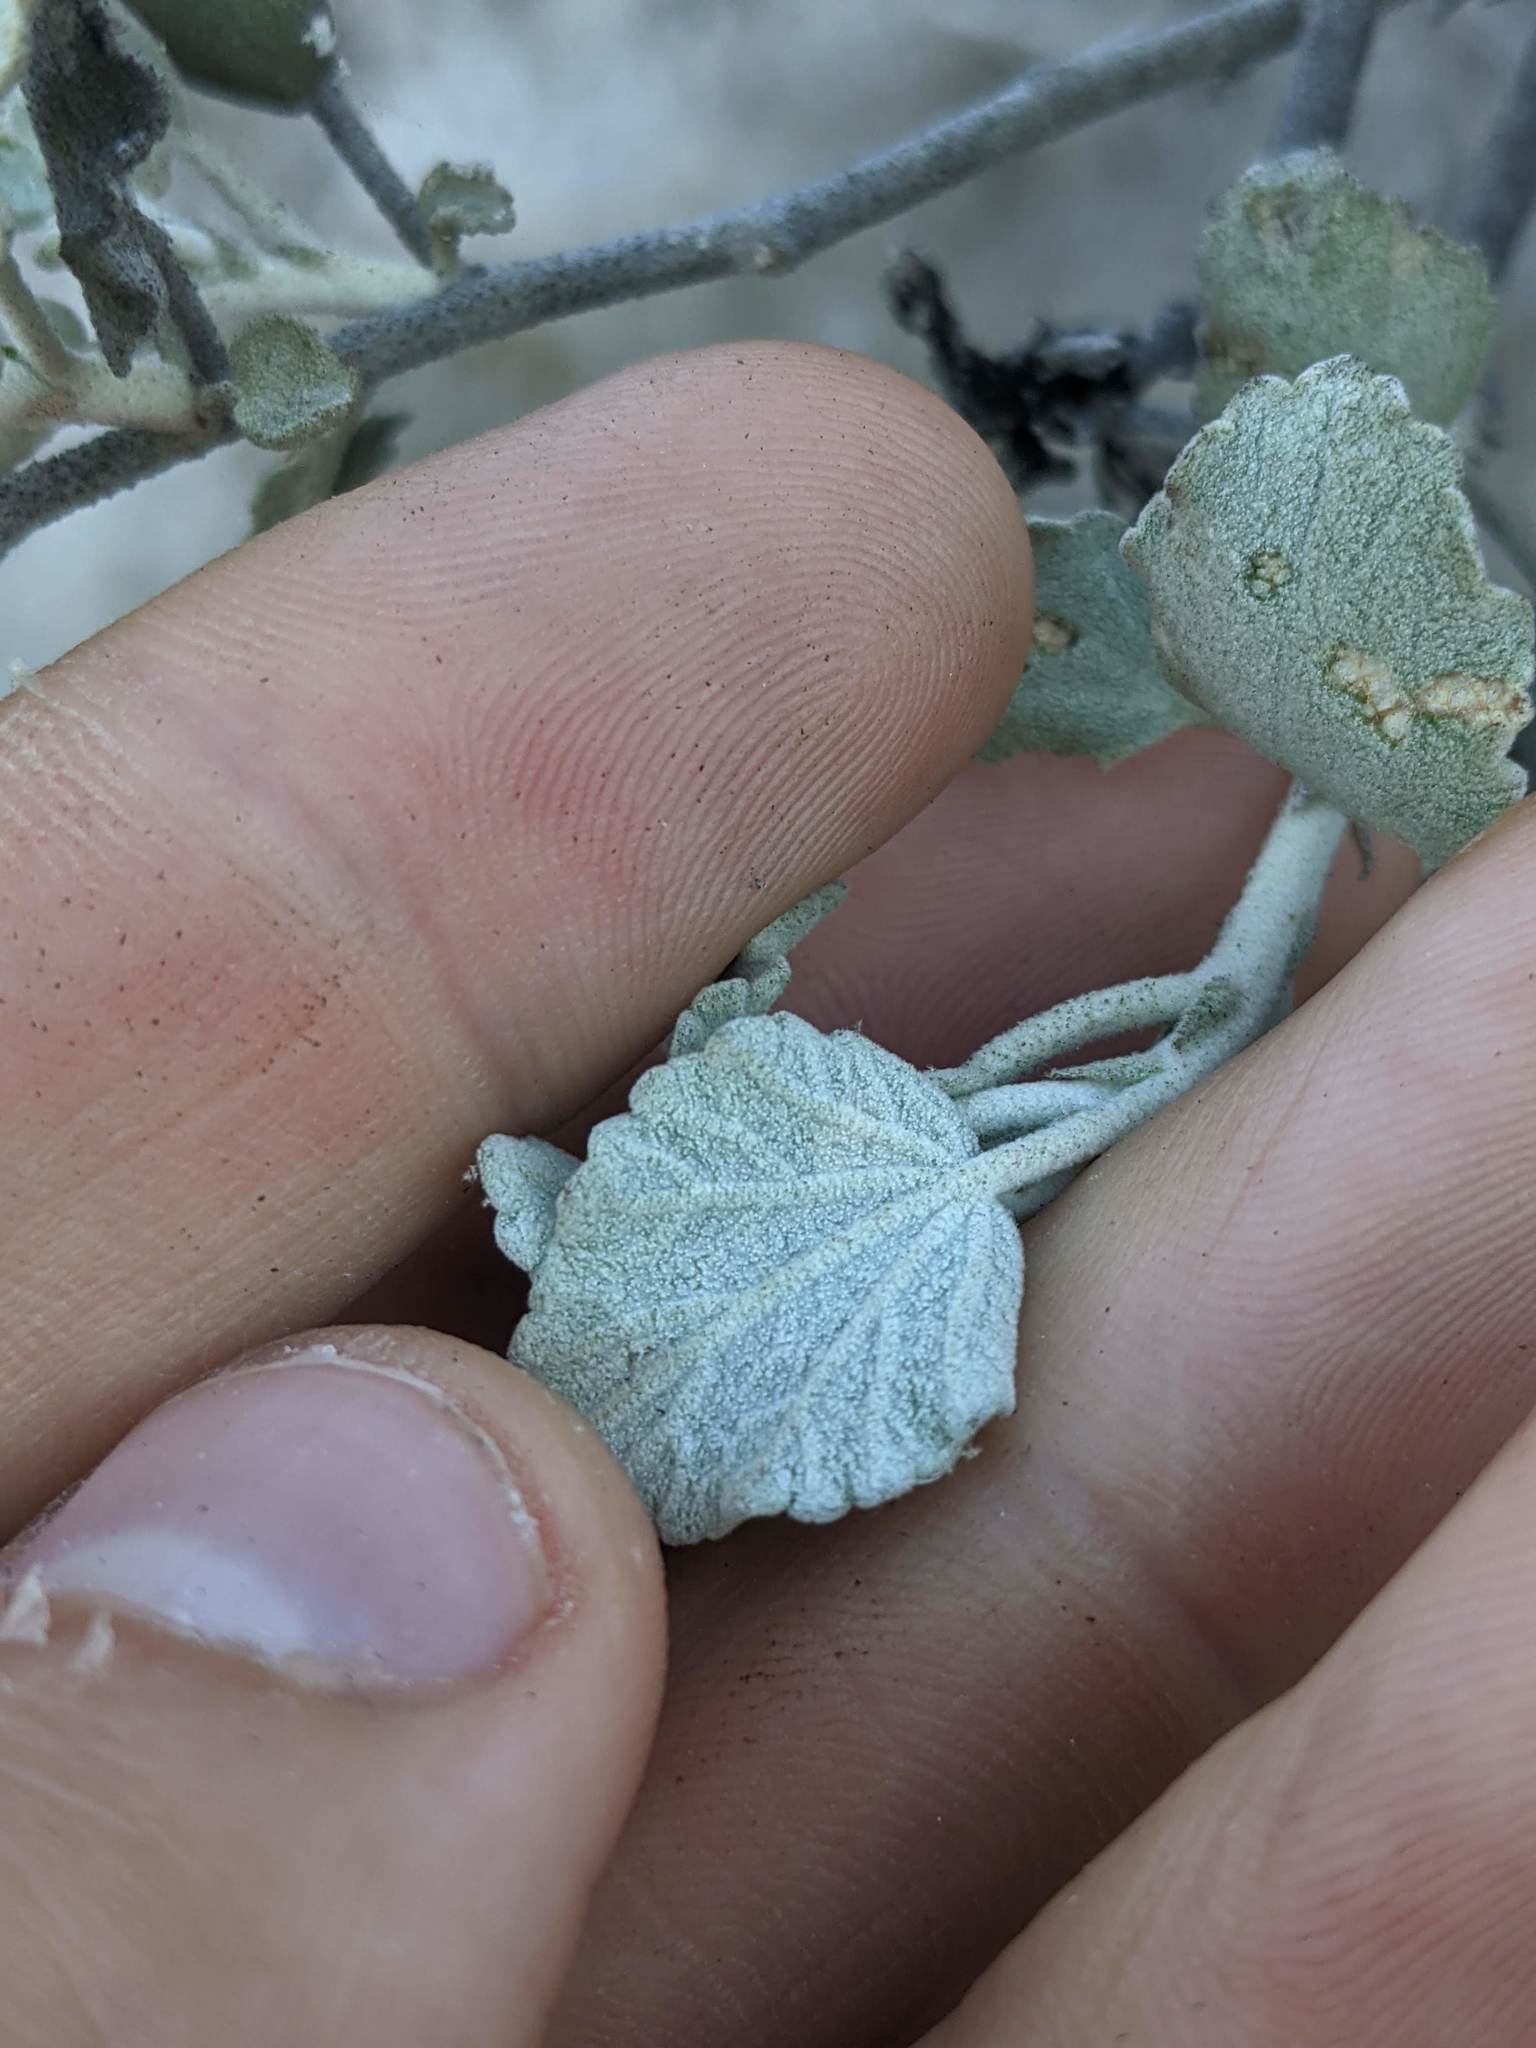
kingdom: Plantae
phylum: Tracheophyta
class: Magnoliopsida
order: Malvales
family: Malvaceae
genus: Malacothamnus
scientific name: Malacothamnus jonesii
